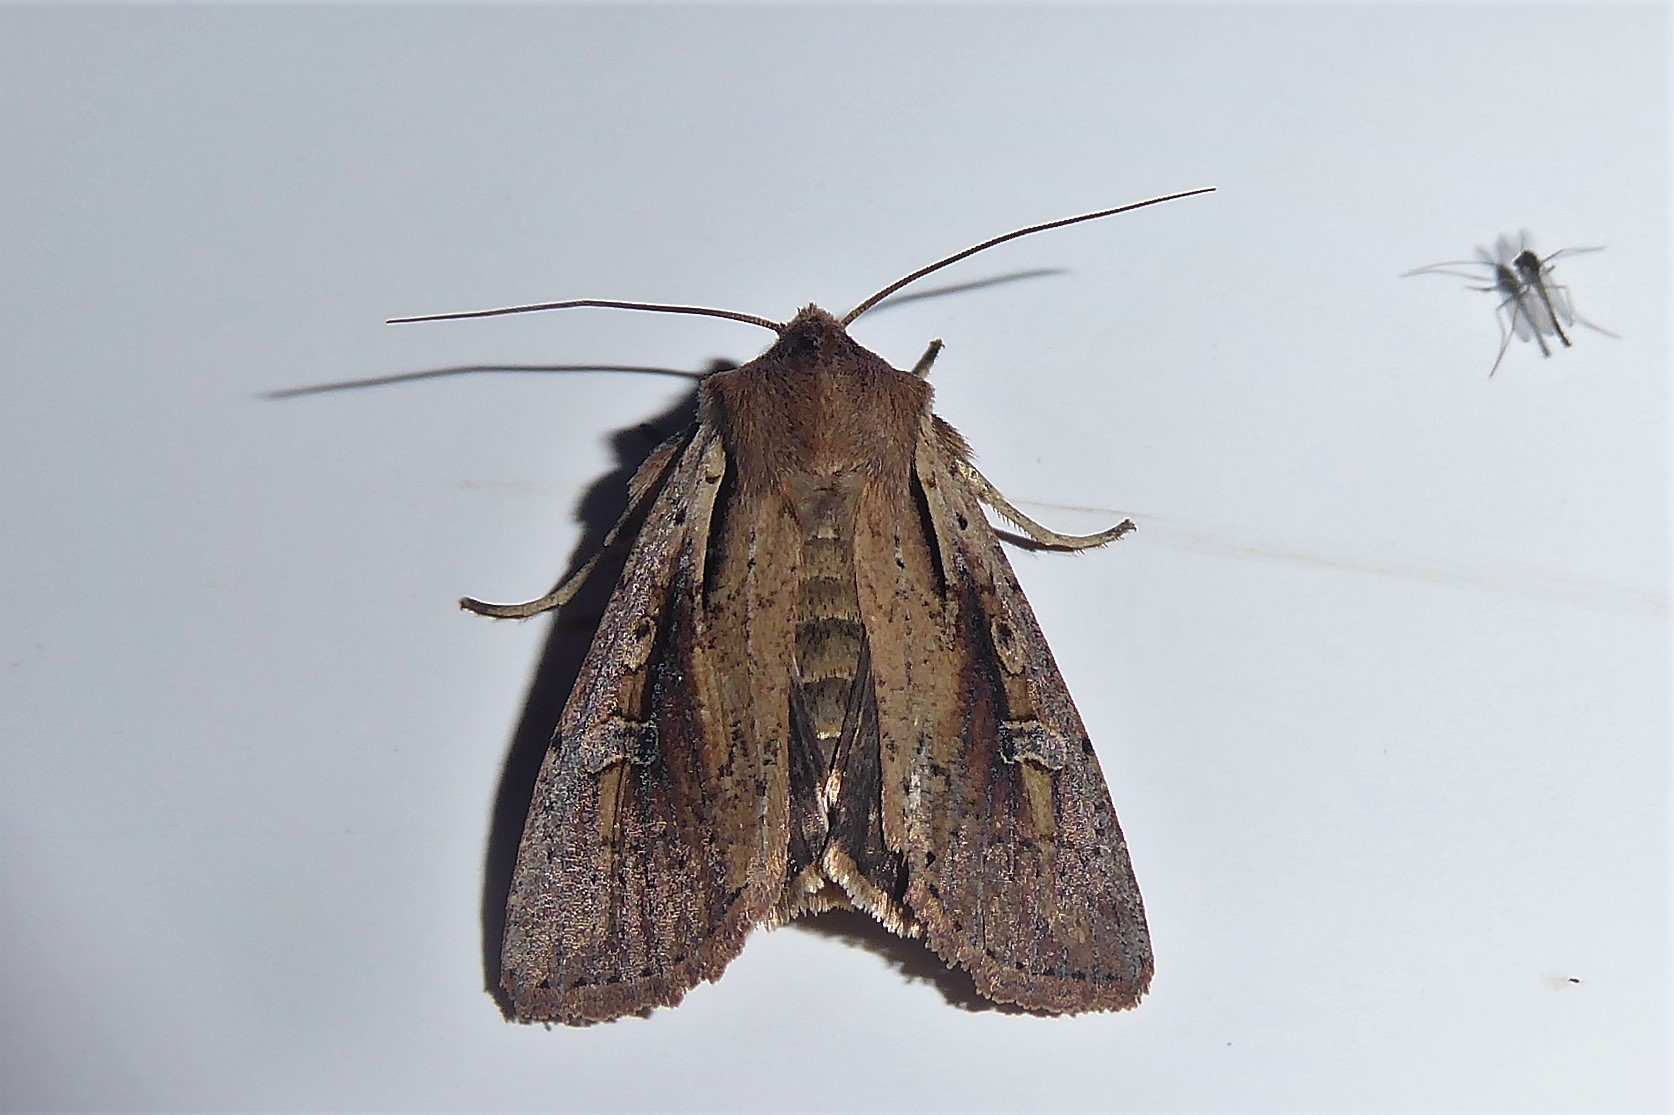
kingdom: Animalia
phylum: Arthropoda
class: Insecta
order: Lepidoptera
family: Noctuidae
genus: Ichneutica
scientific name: Ichneutica atristriga
